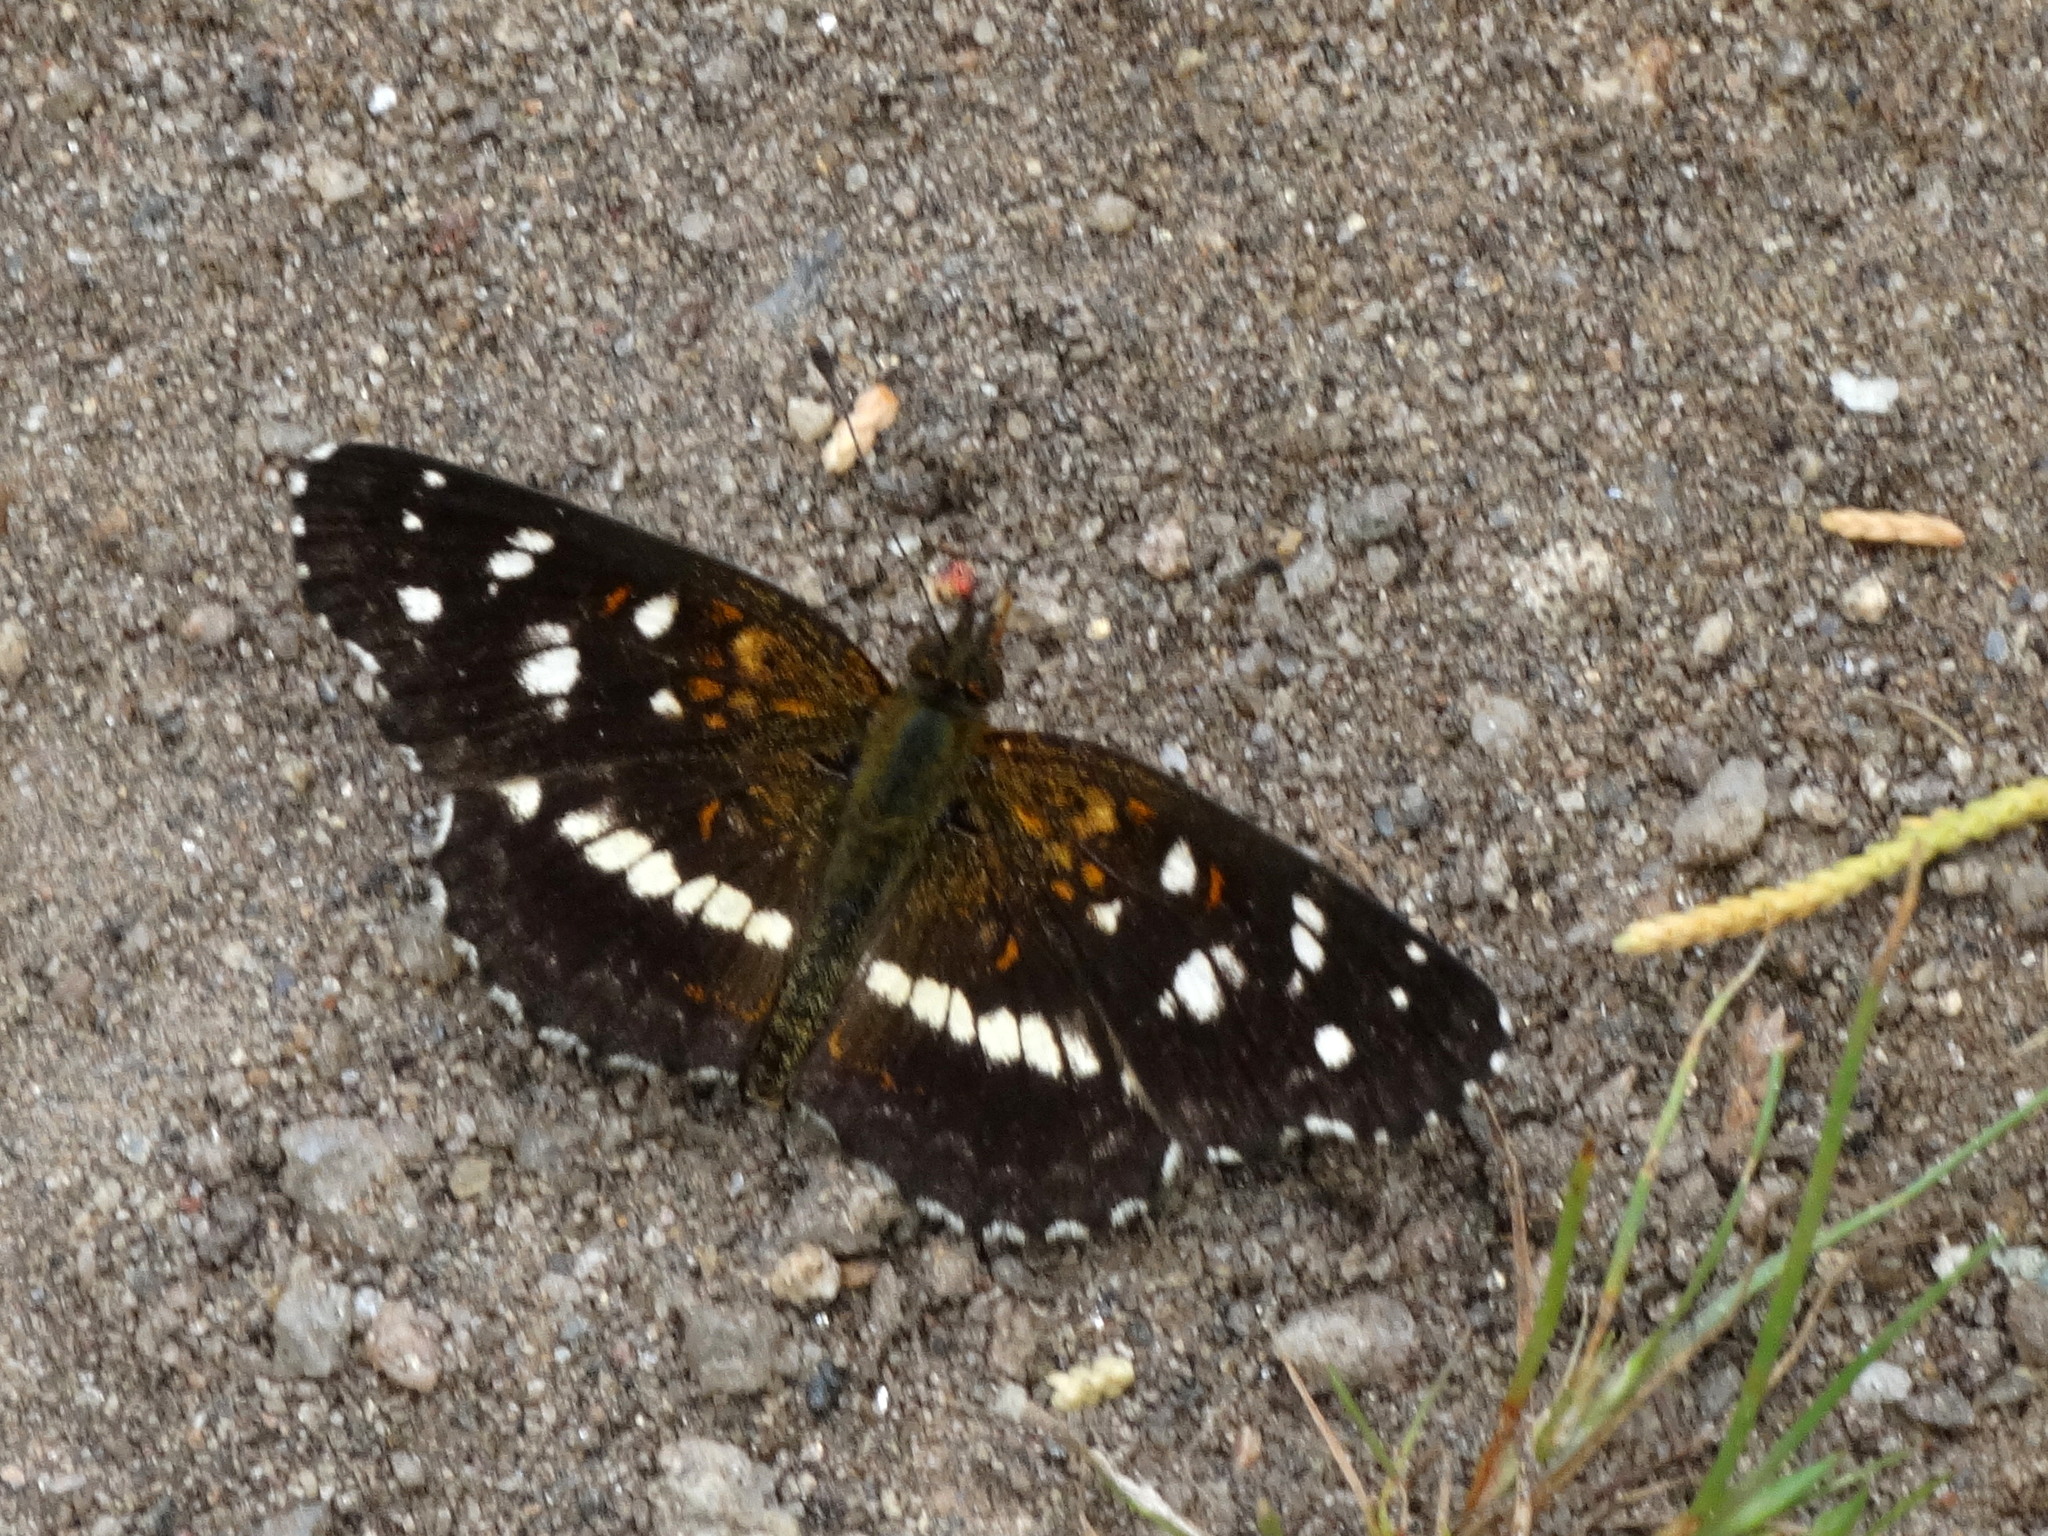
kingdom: Animalia
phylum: Arthropoda
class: Insecta
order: Lepidoptera
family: Nymphalidae
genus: Ortilia
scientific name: Ortilia ithra
